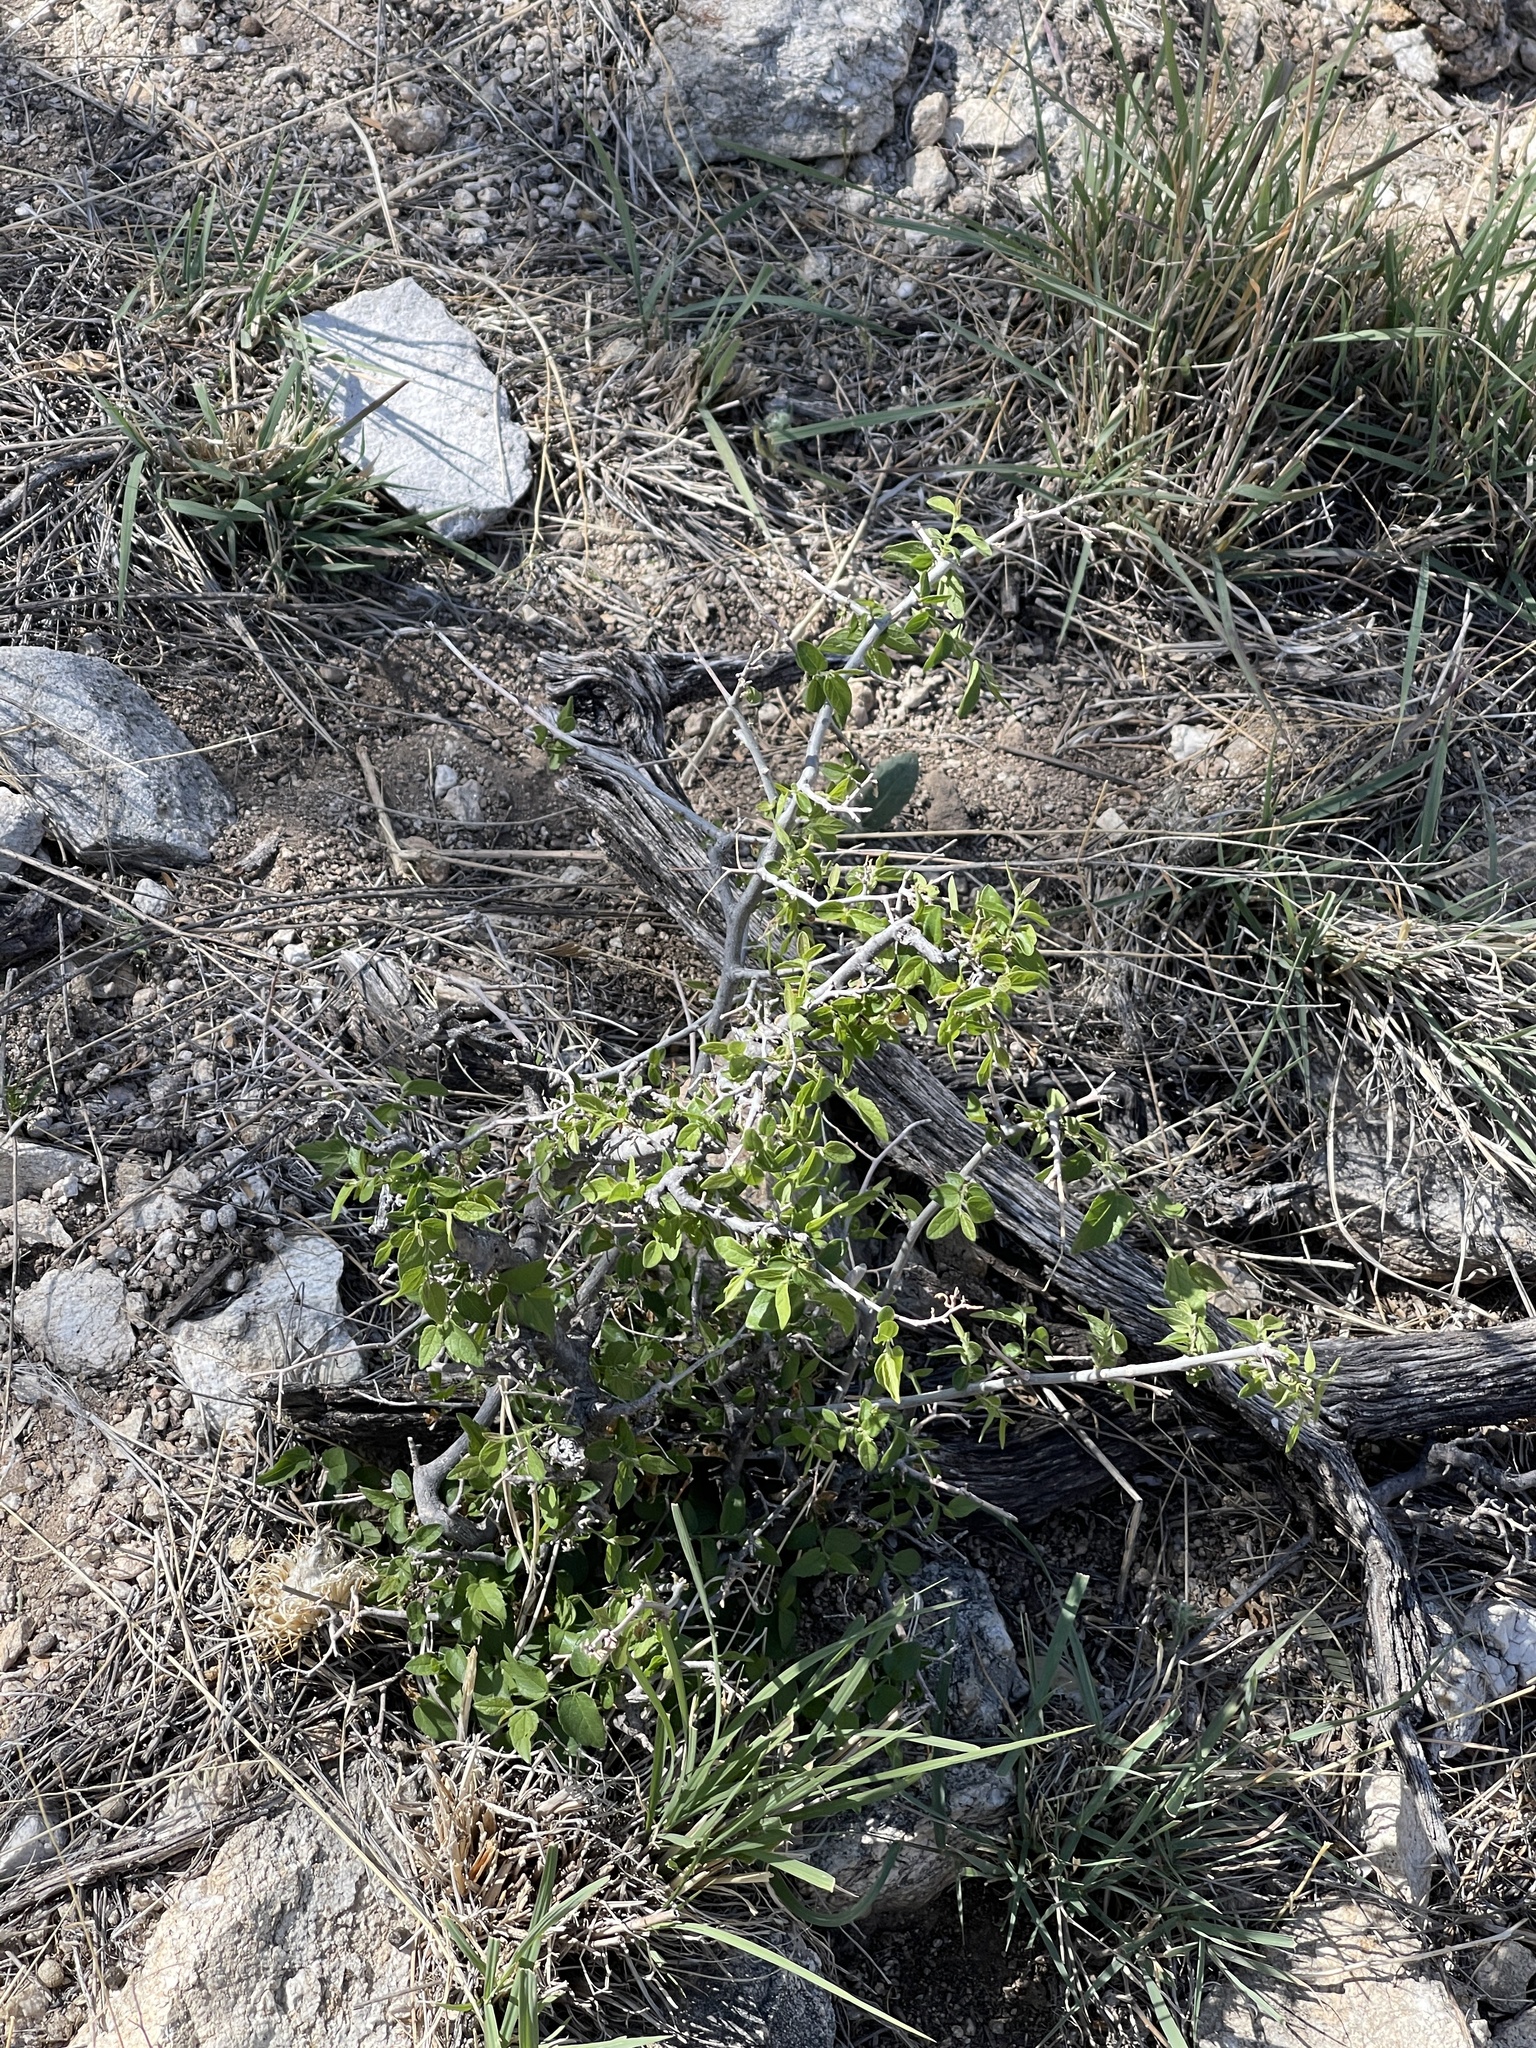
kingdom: Plantae
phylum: Tracheophyta
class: Magnoliopsida
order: Rosales
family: Cannabaceae
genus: Celtis
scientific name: Celtis pallida
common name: Desert hackberry
